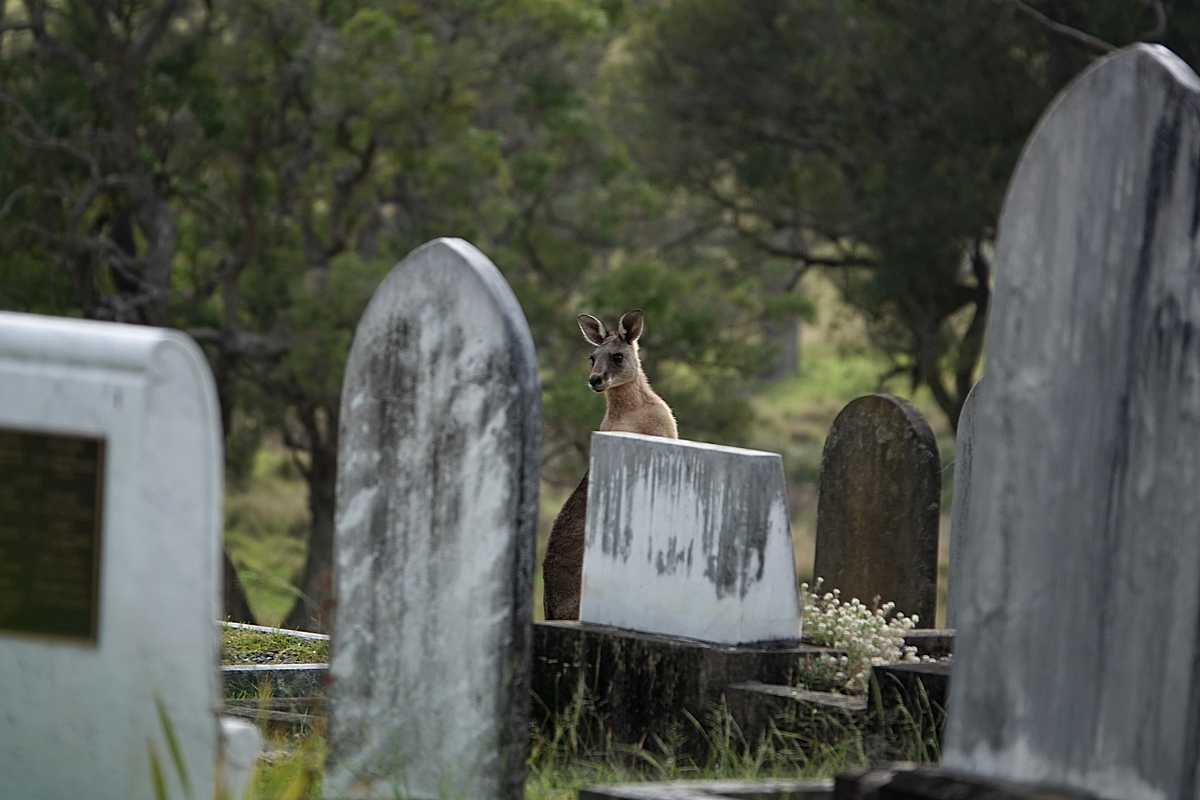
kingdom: Animalia
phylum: Chordata
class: Mammalia
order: Diprotodontia
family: Macropodidae
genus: Macropus
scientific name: Macropus giganteus
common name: Eastern grey kangaroo
